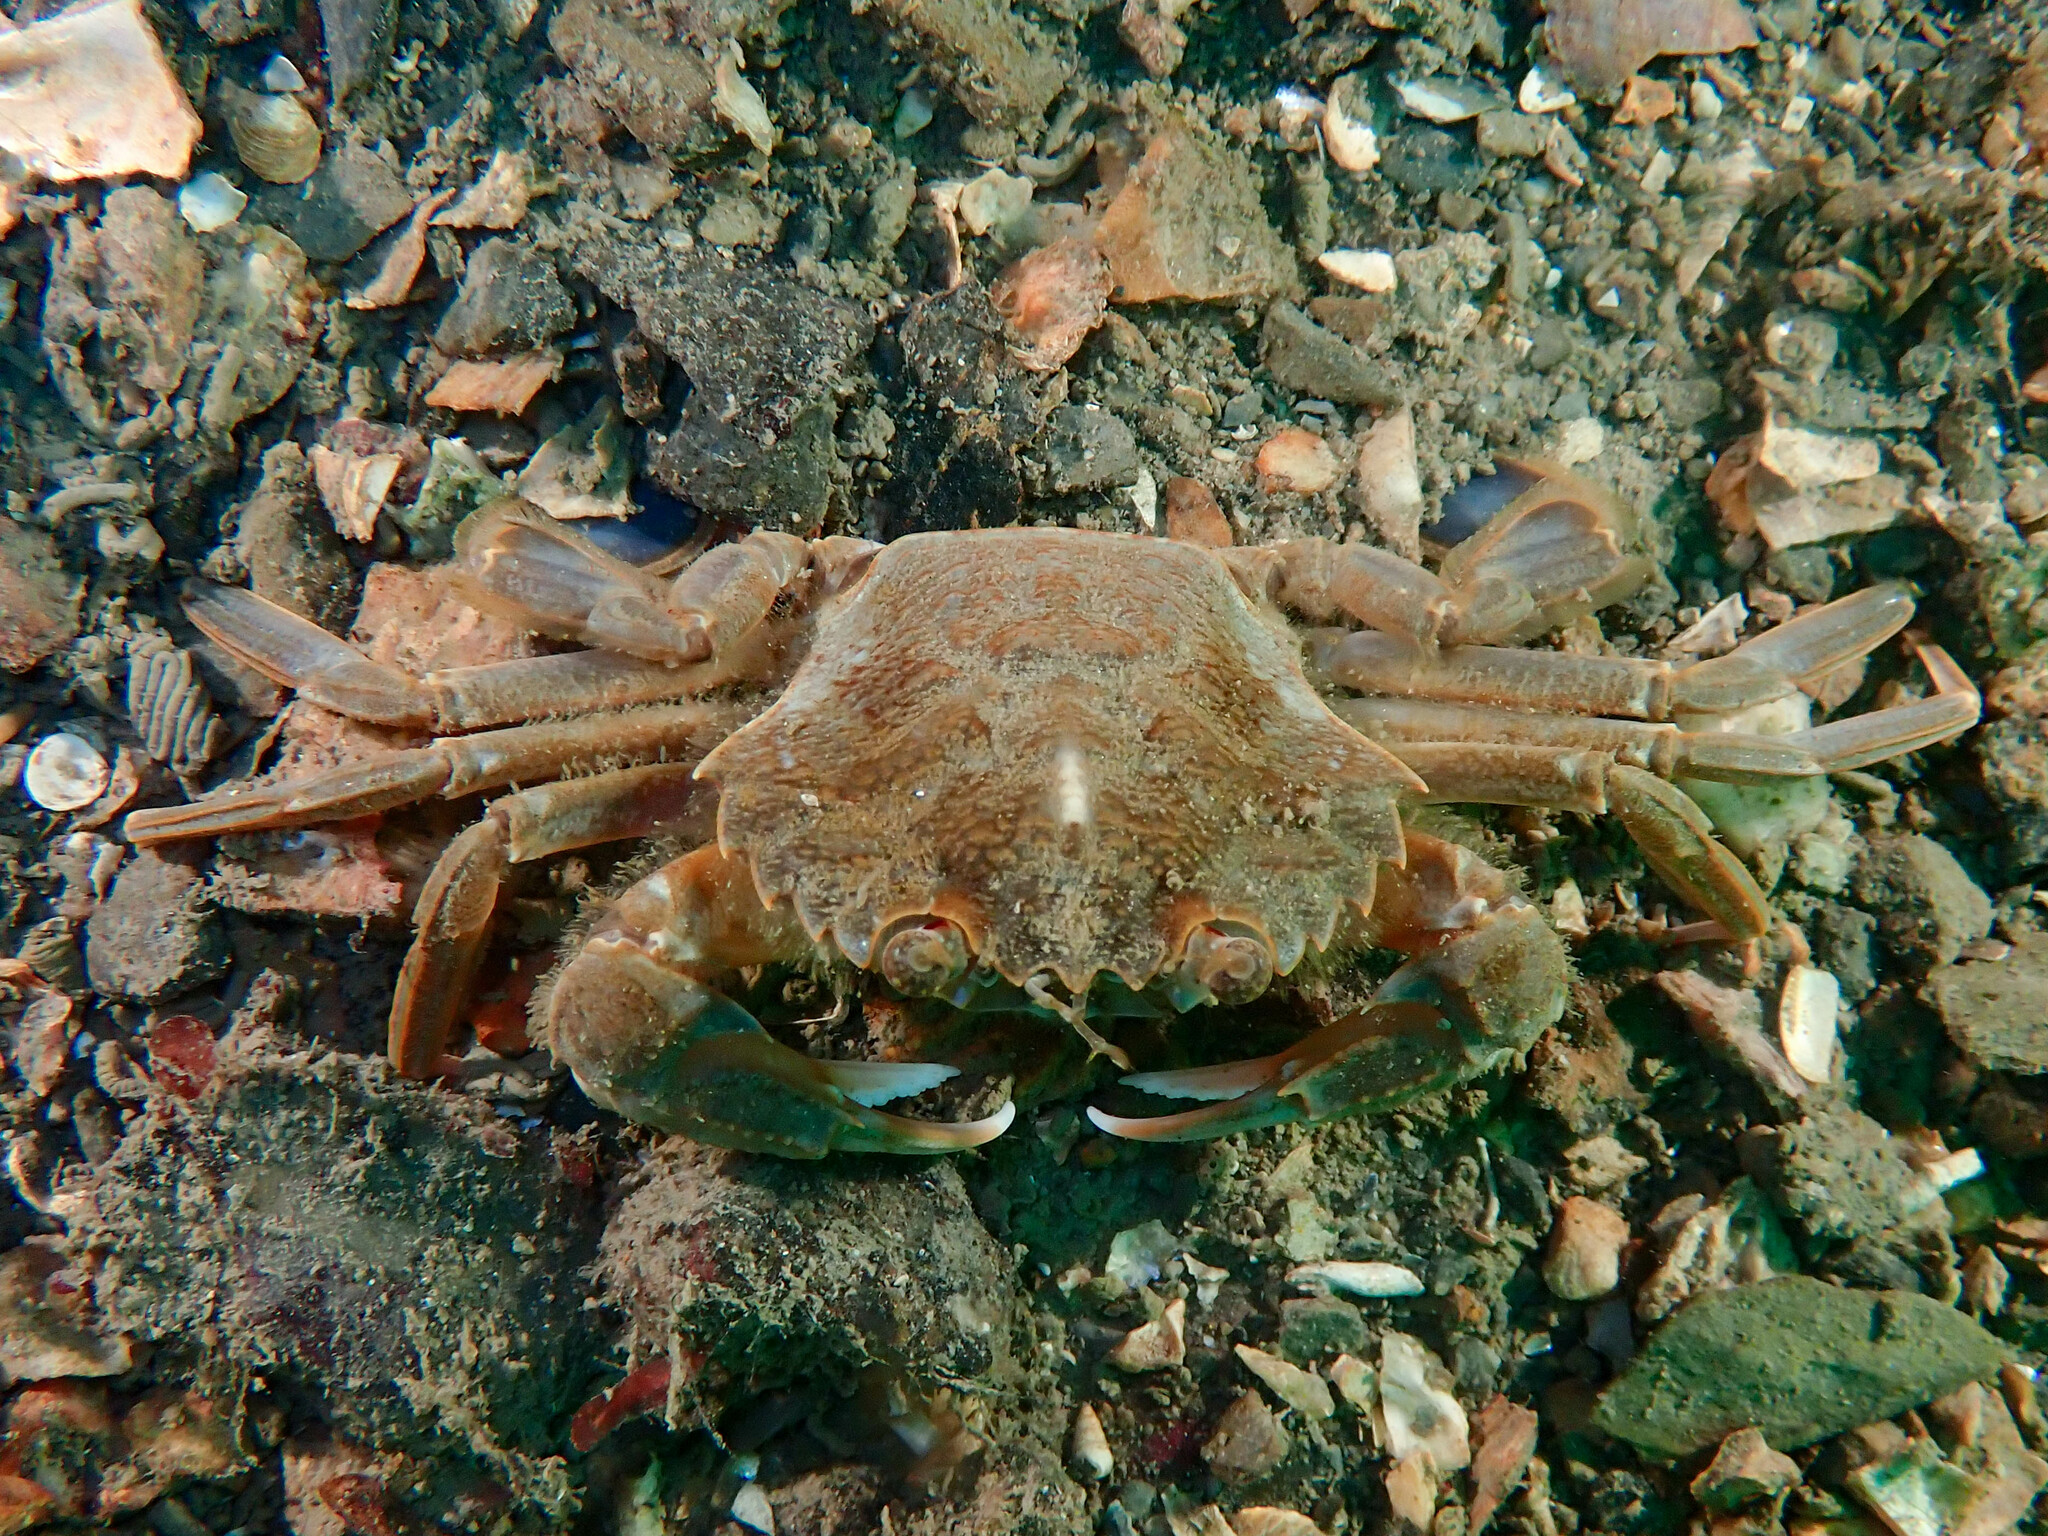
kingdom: Animalia
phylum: Arthropoda
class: Malacostraca
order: Decapoda
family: Polybiidae
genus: Liocarcinus
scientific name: Liocarcinus depurator
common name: Cleanser crab
